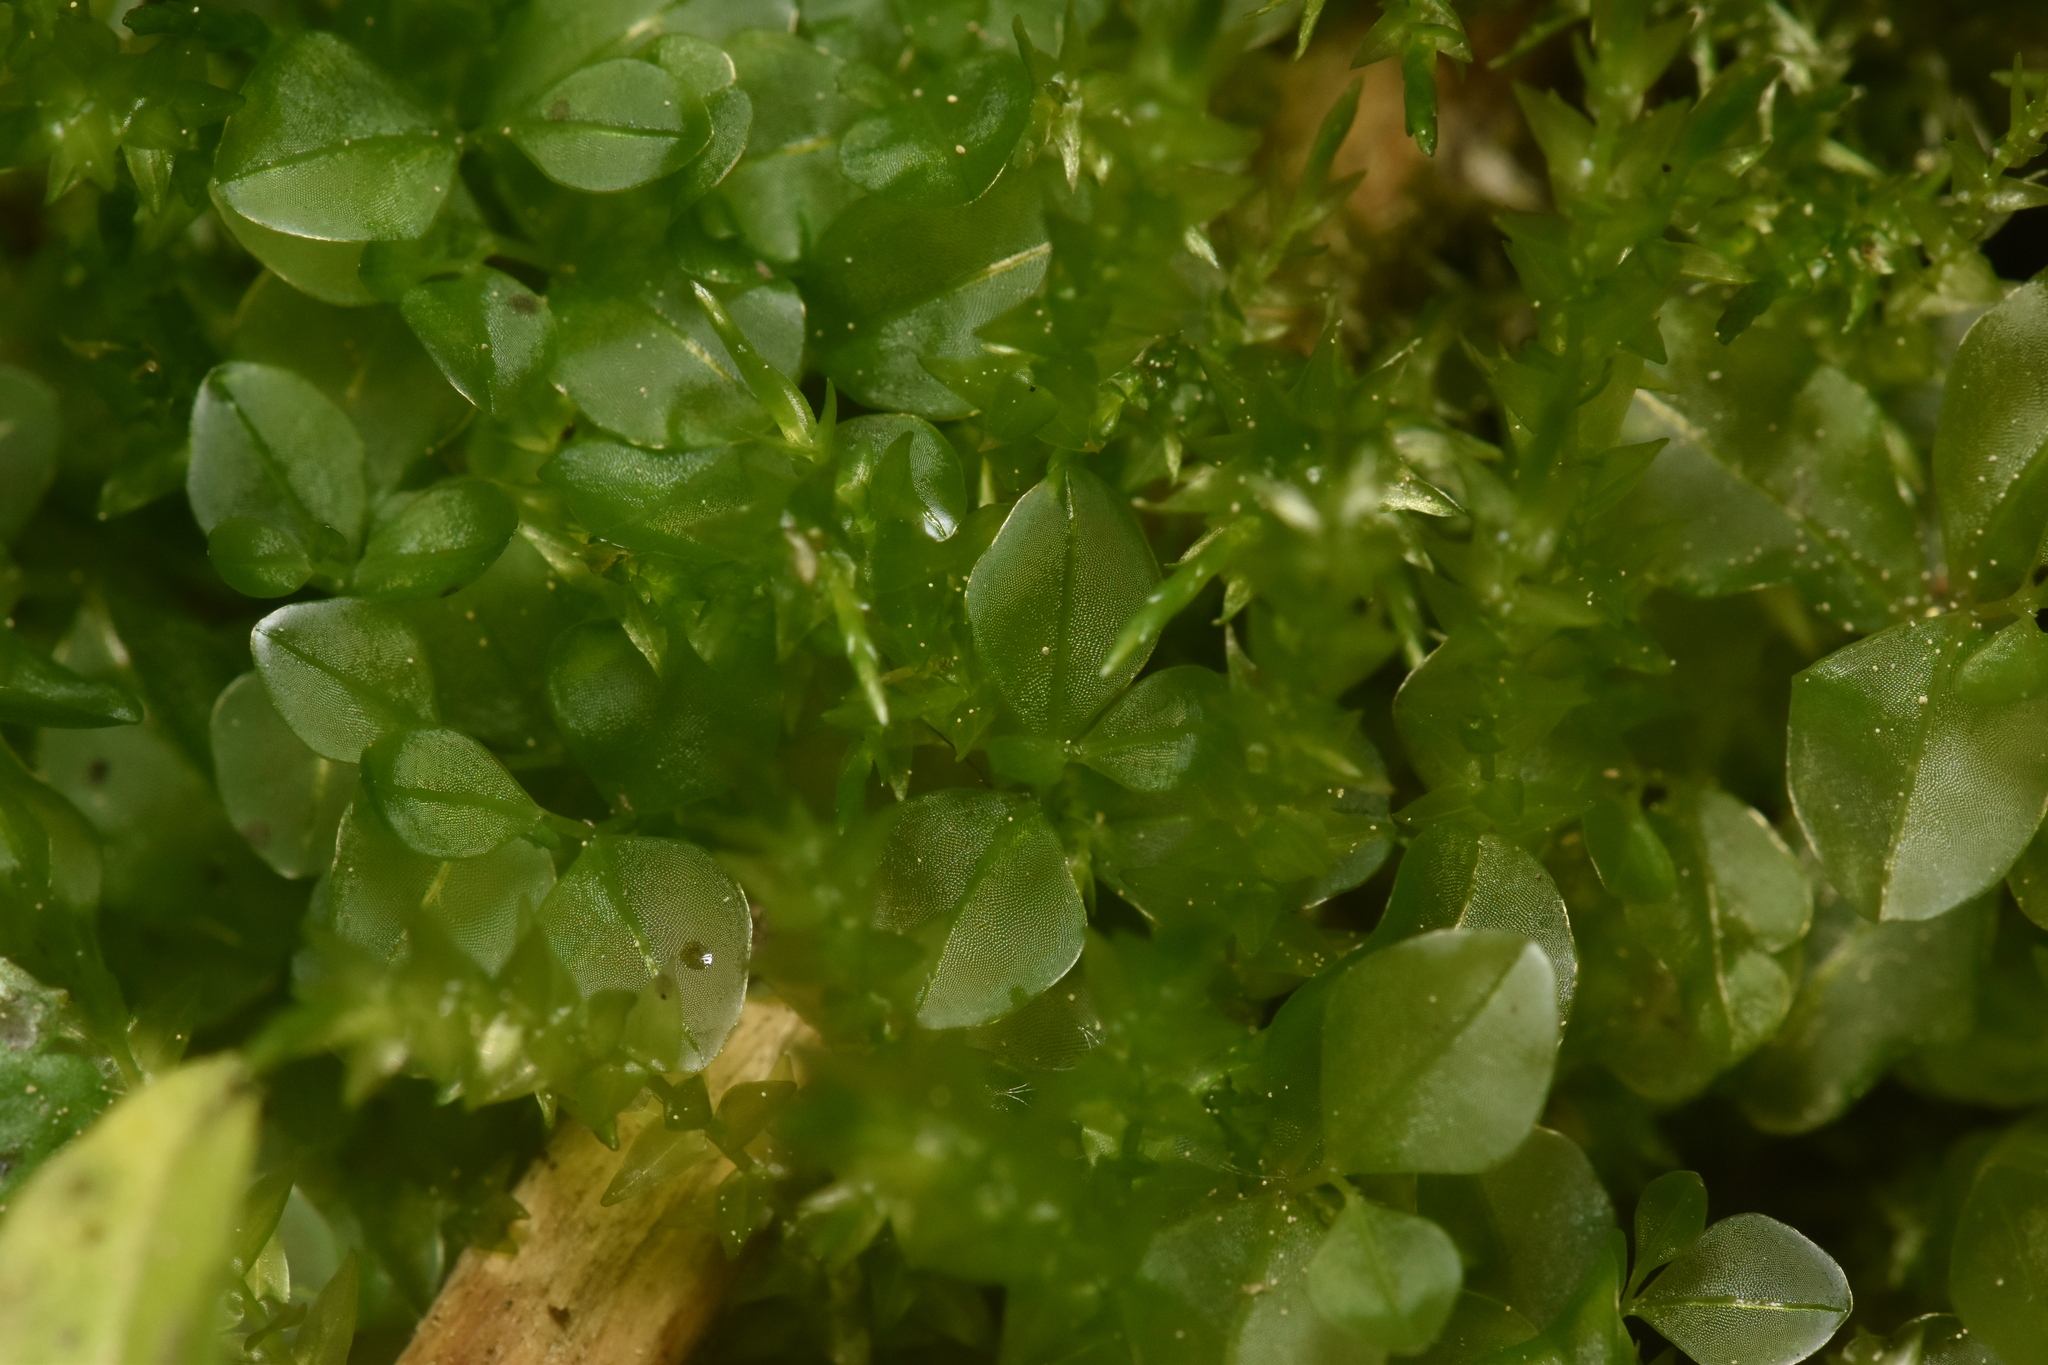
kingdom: Plantae
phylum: Bryophyta
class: Bryopsida
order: Bryales
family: Mniaceae
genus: Rhizomnium
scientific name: Rhizomnium magnifolium
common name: Large-leaved leafy moss
